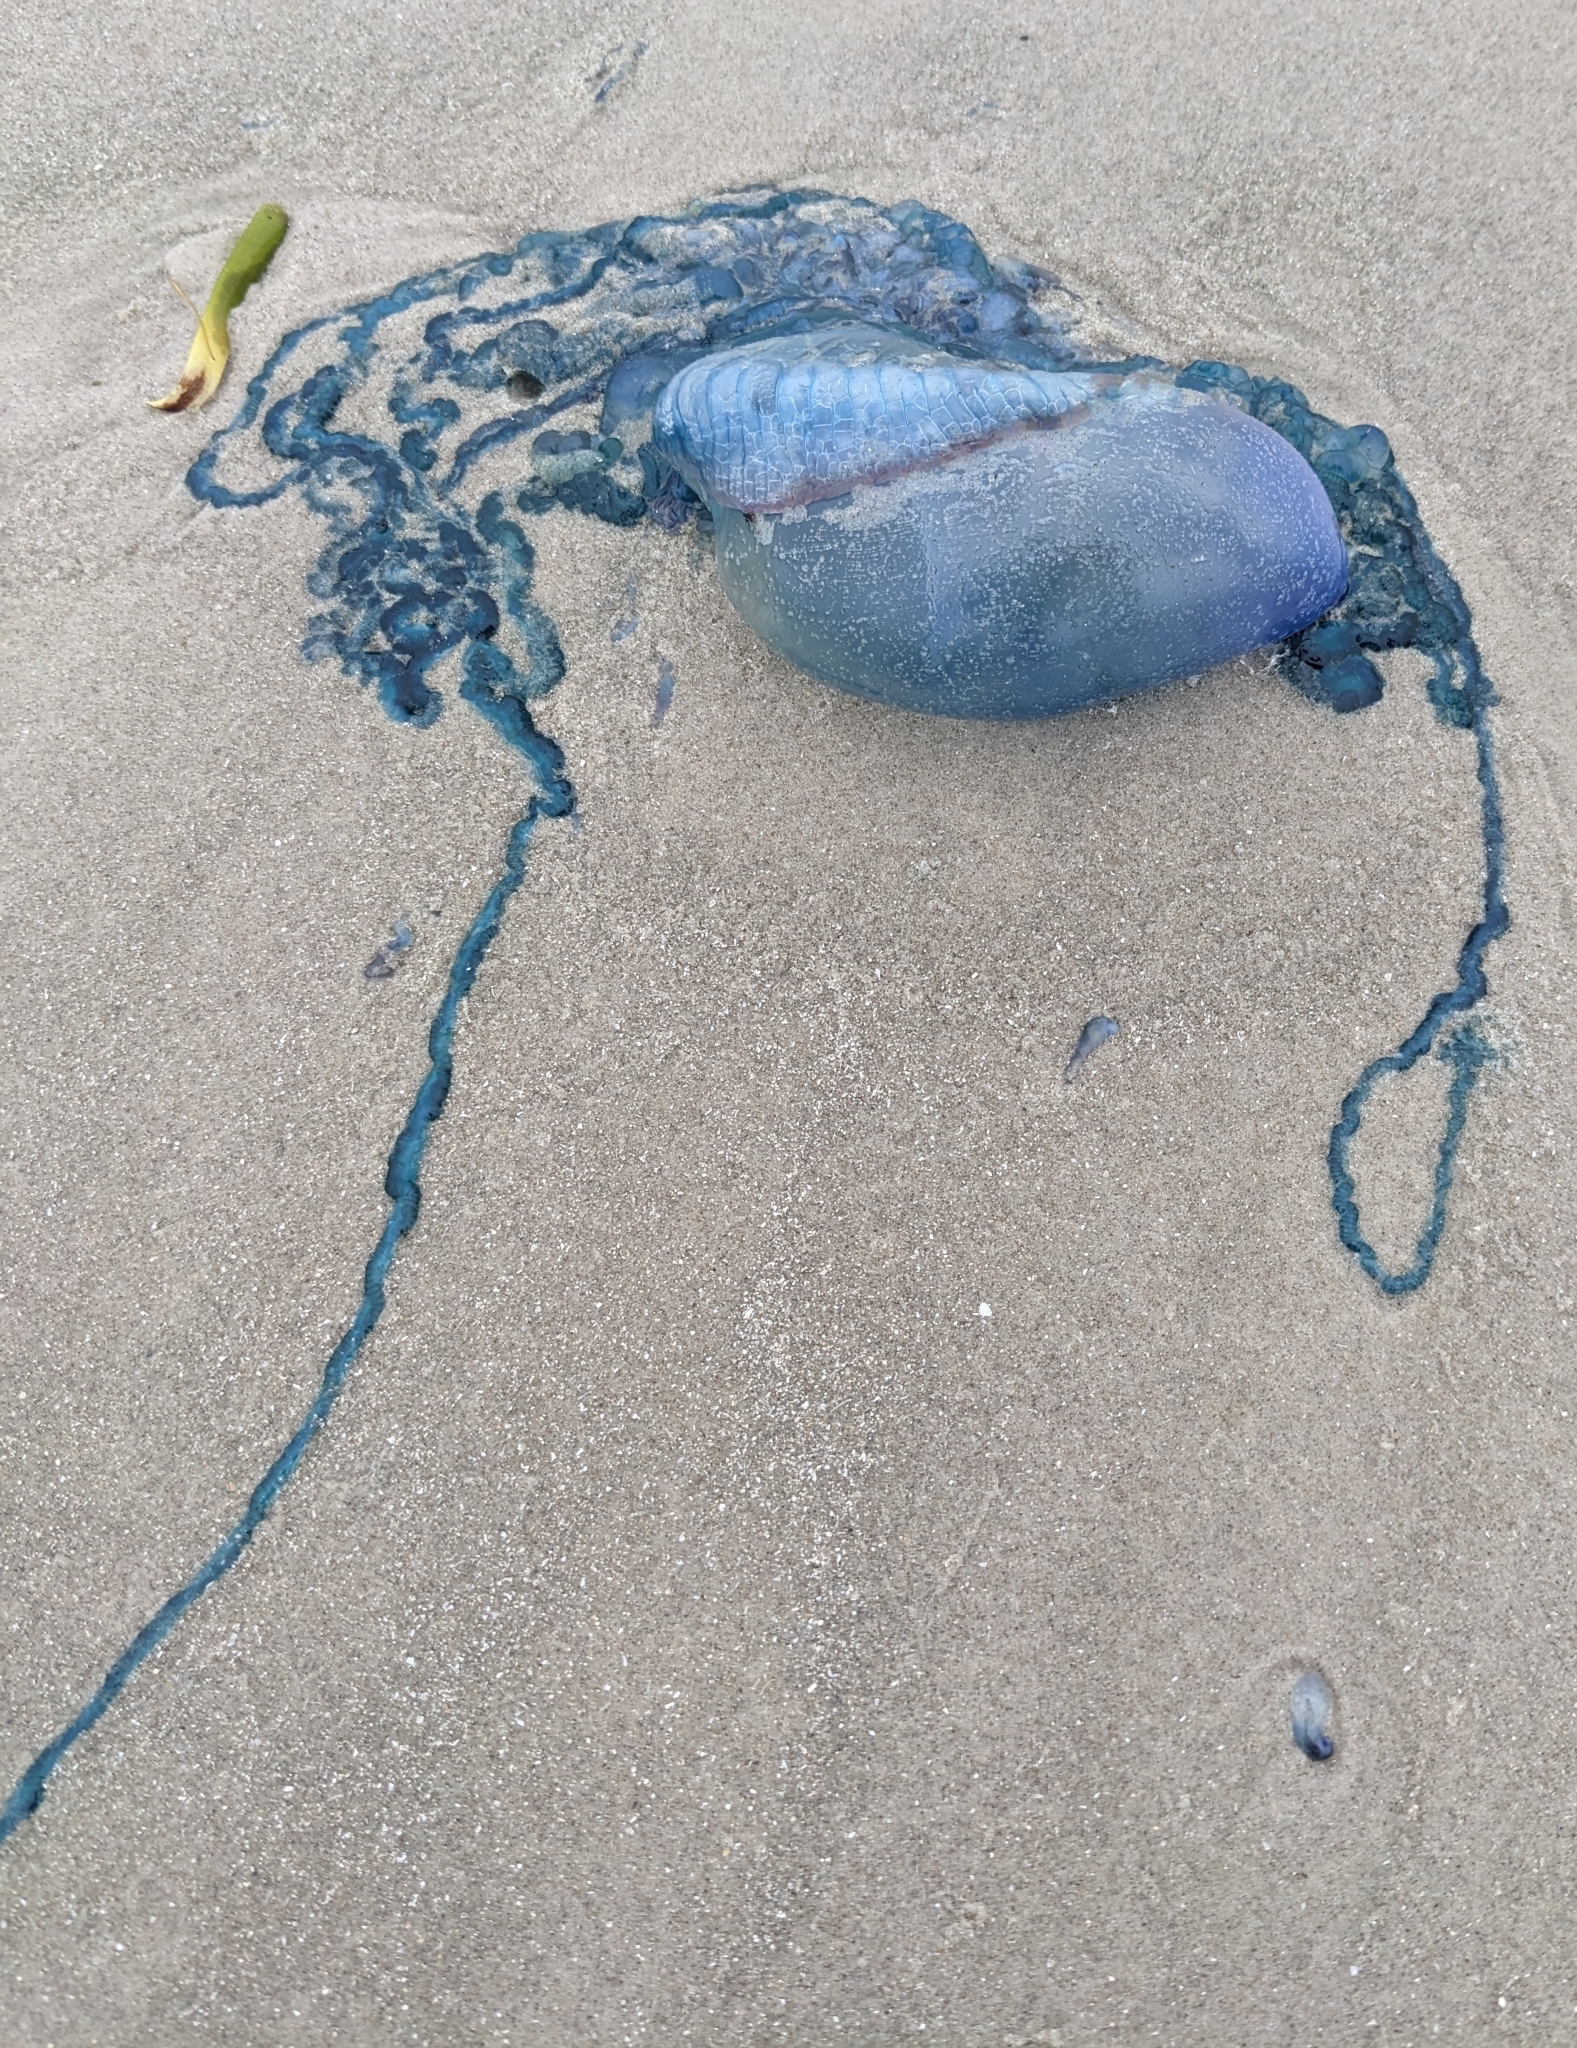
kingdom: Animalia
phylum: Cnidaria
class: Hydrozoa
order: Siphonophorae
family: Physaliidae
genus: Physalia
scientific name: Physalia physalis
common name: Portuguese man-of-war
